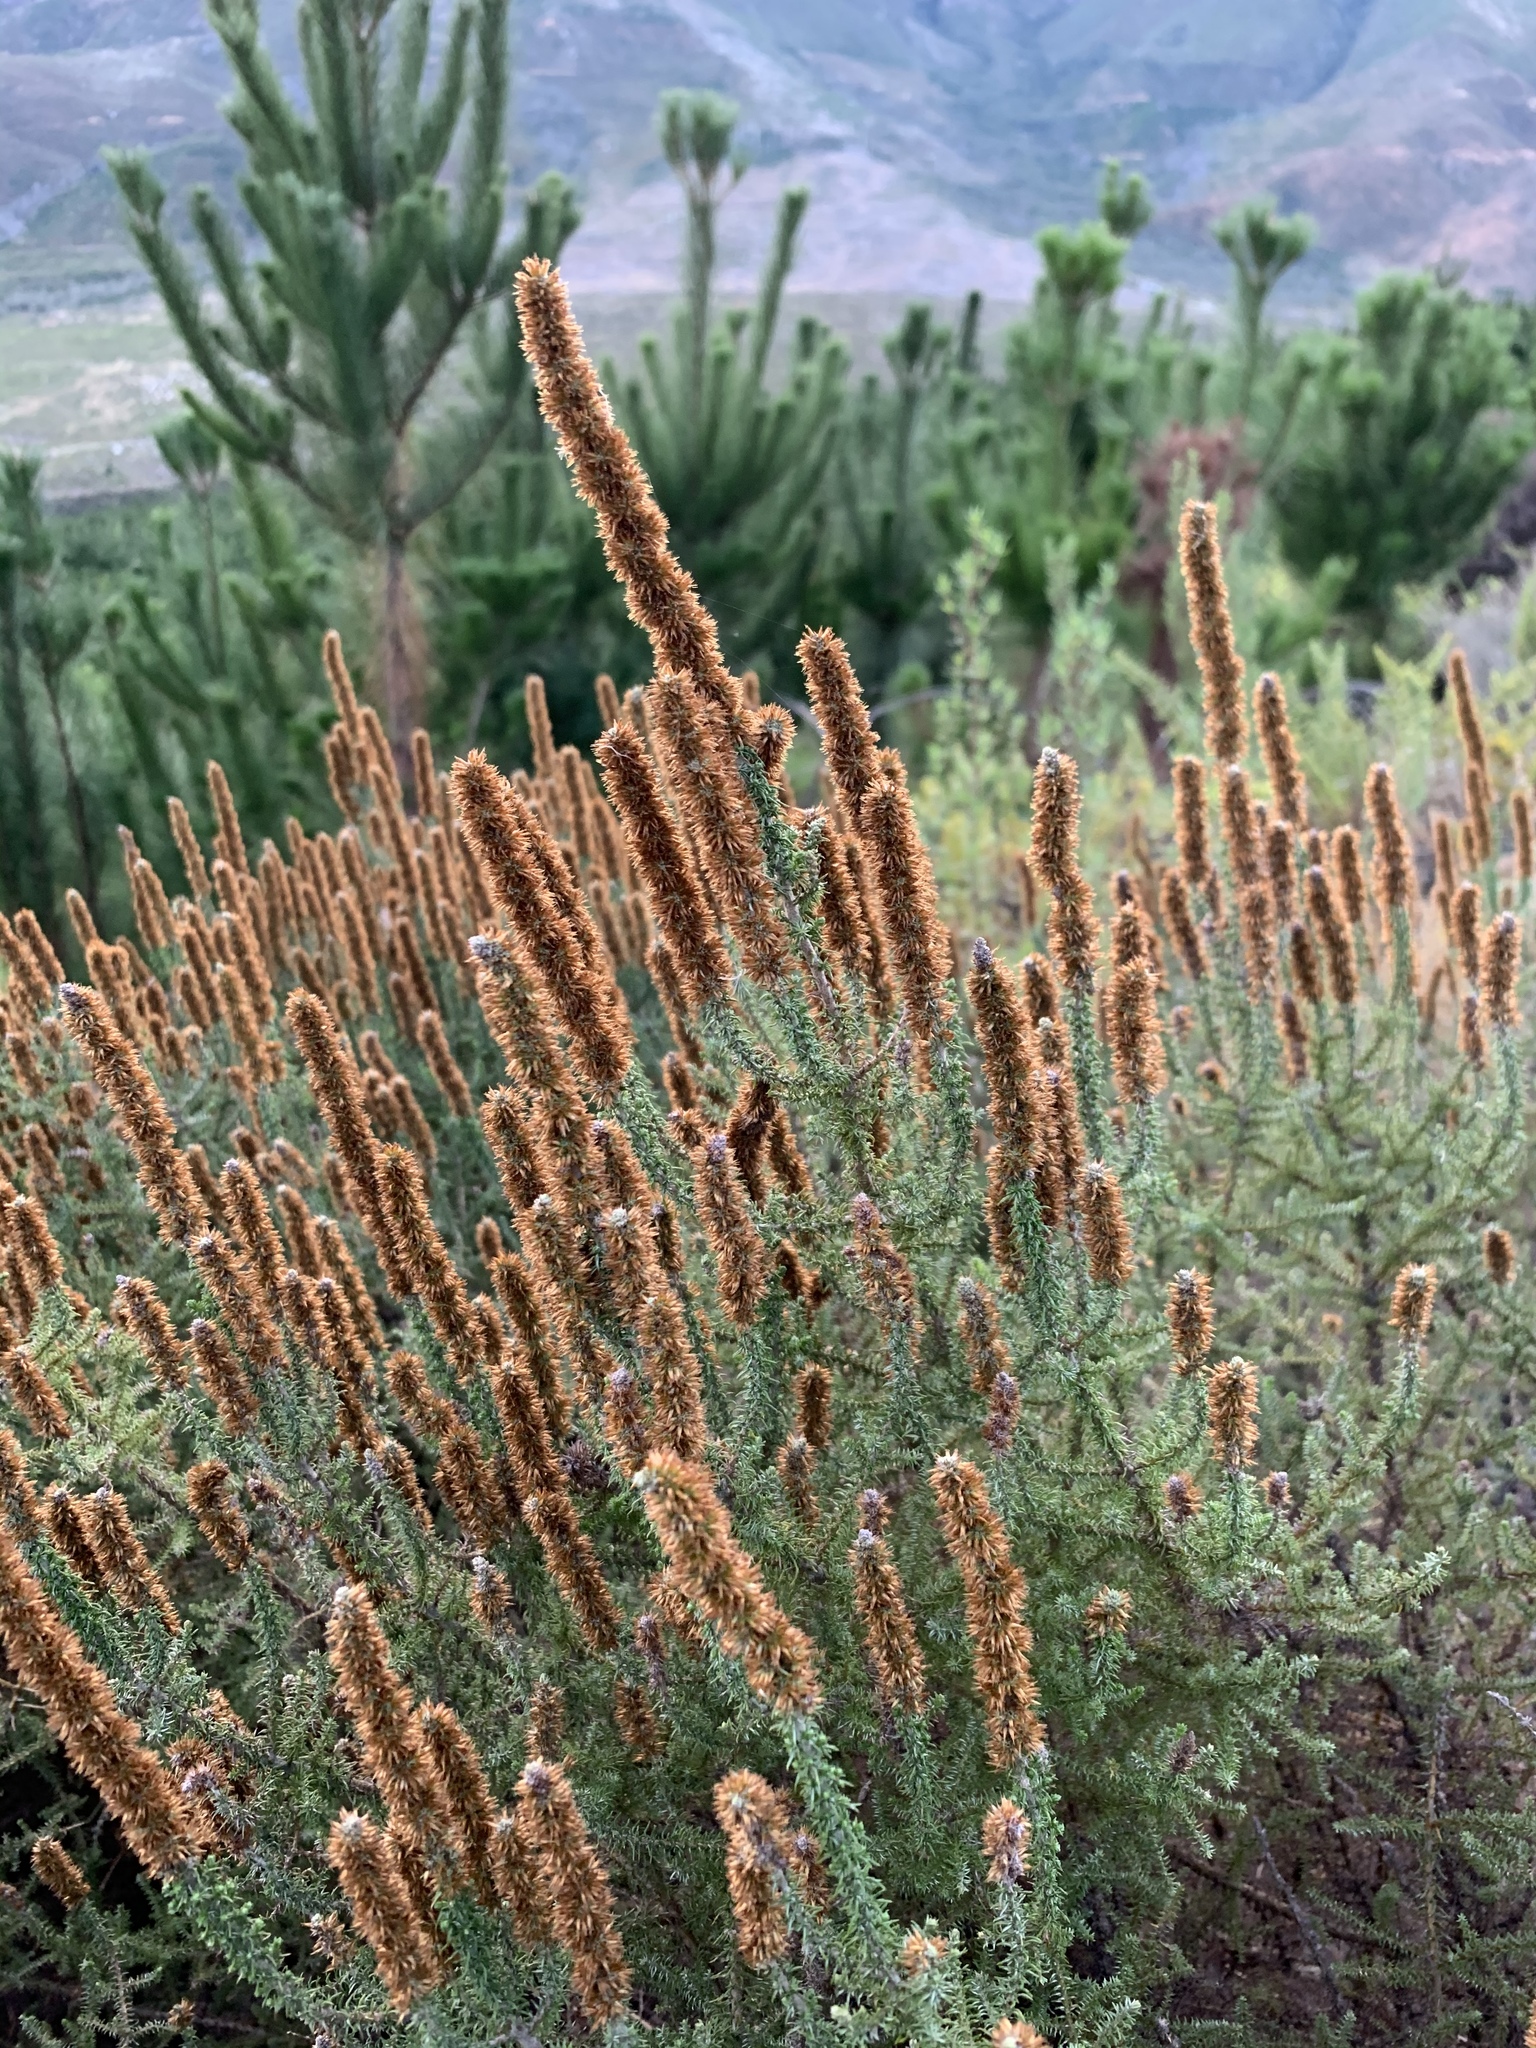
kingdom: Plantae
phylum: Tracheophyta
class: Magnoliopsida
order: Asterales
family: Asteraceae
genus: Seriphium
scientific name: Seriphium cinereum
